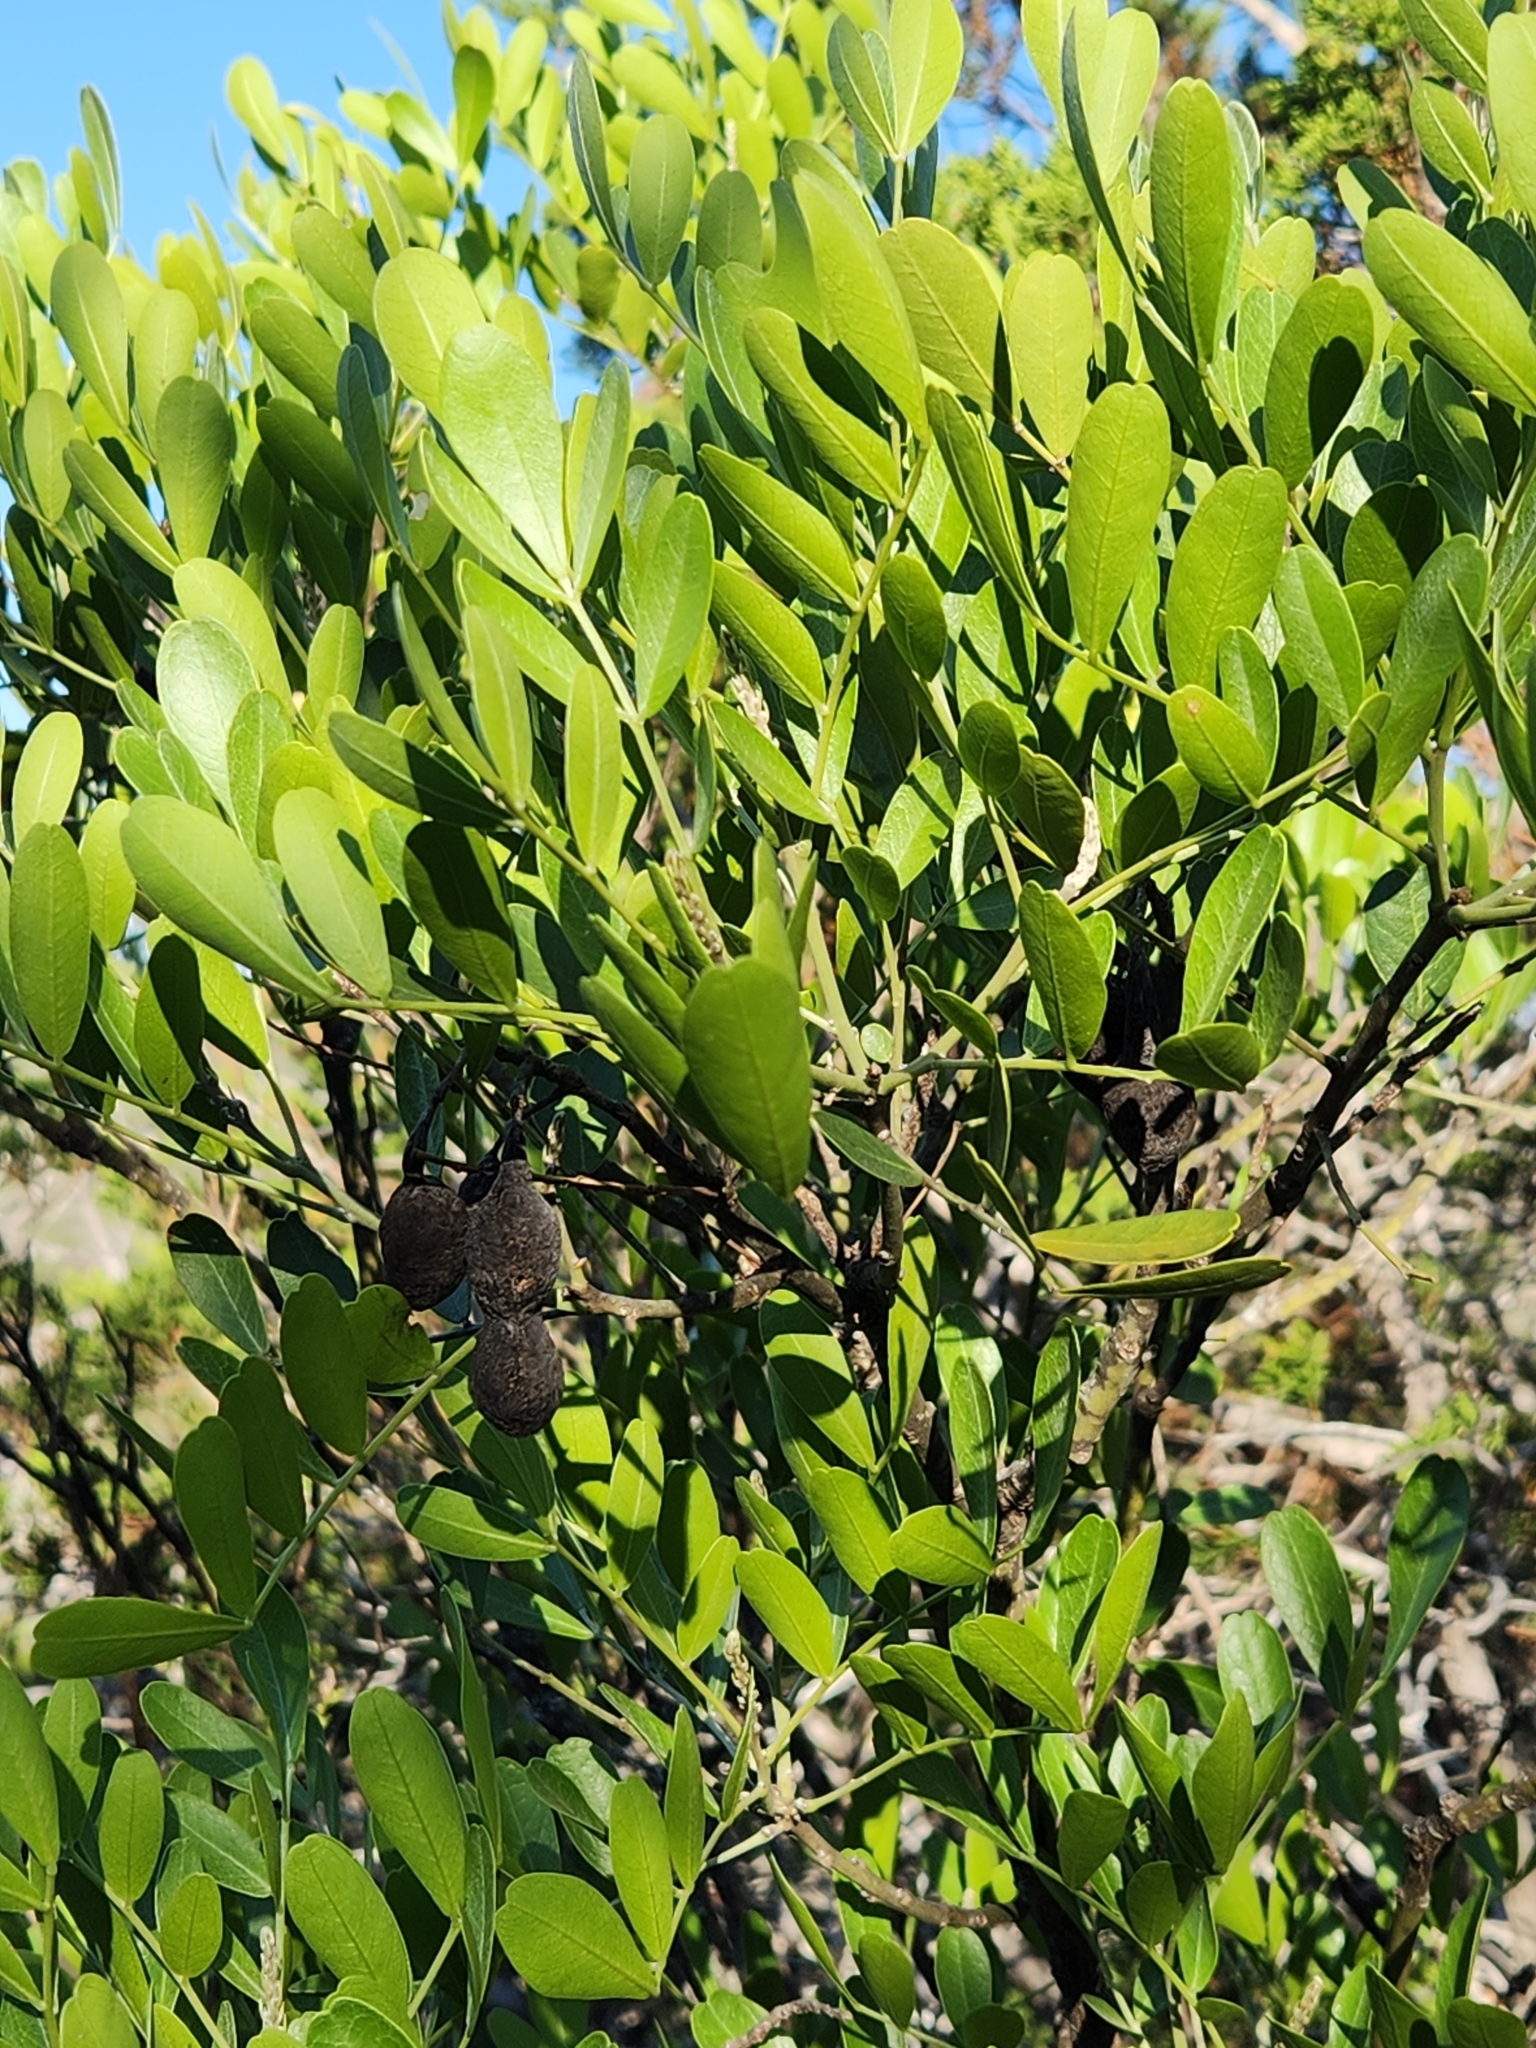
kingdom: Plantae
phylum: Tracheophyta
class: Magnoliopsida
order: Fabales
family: Fabaceae
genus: Dermatophyllum
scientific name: Dermatophyllum secundiflorum
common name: Texas-mountain-laurel
